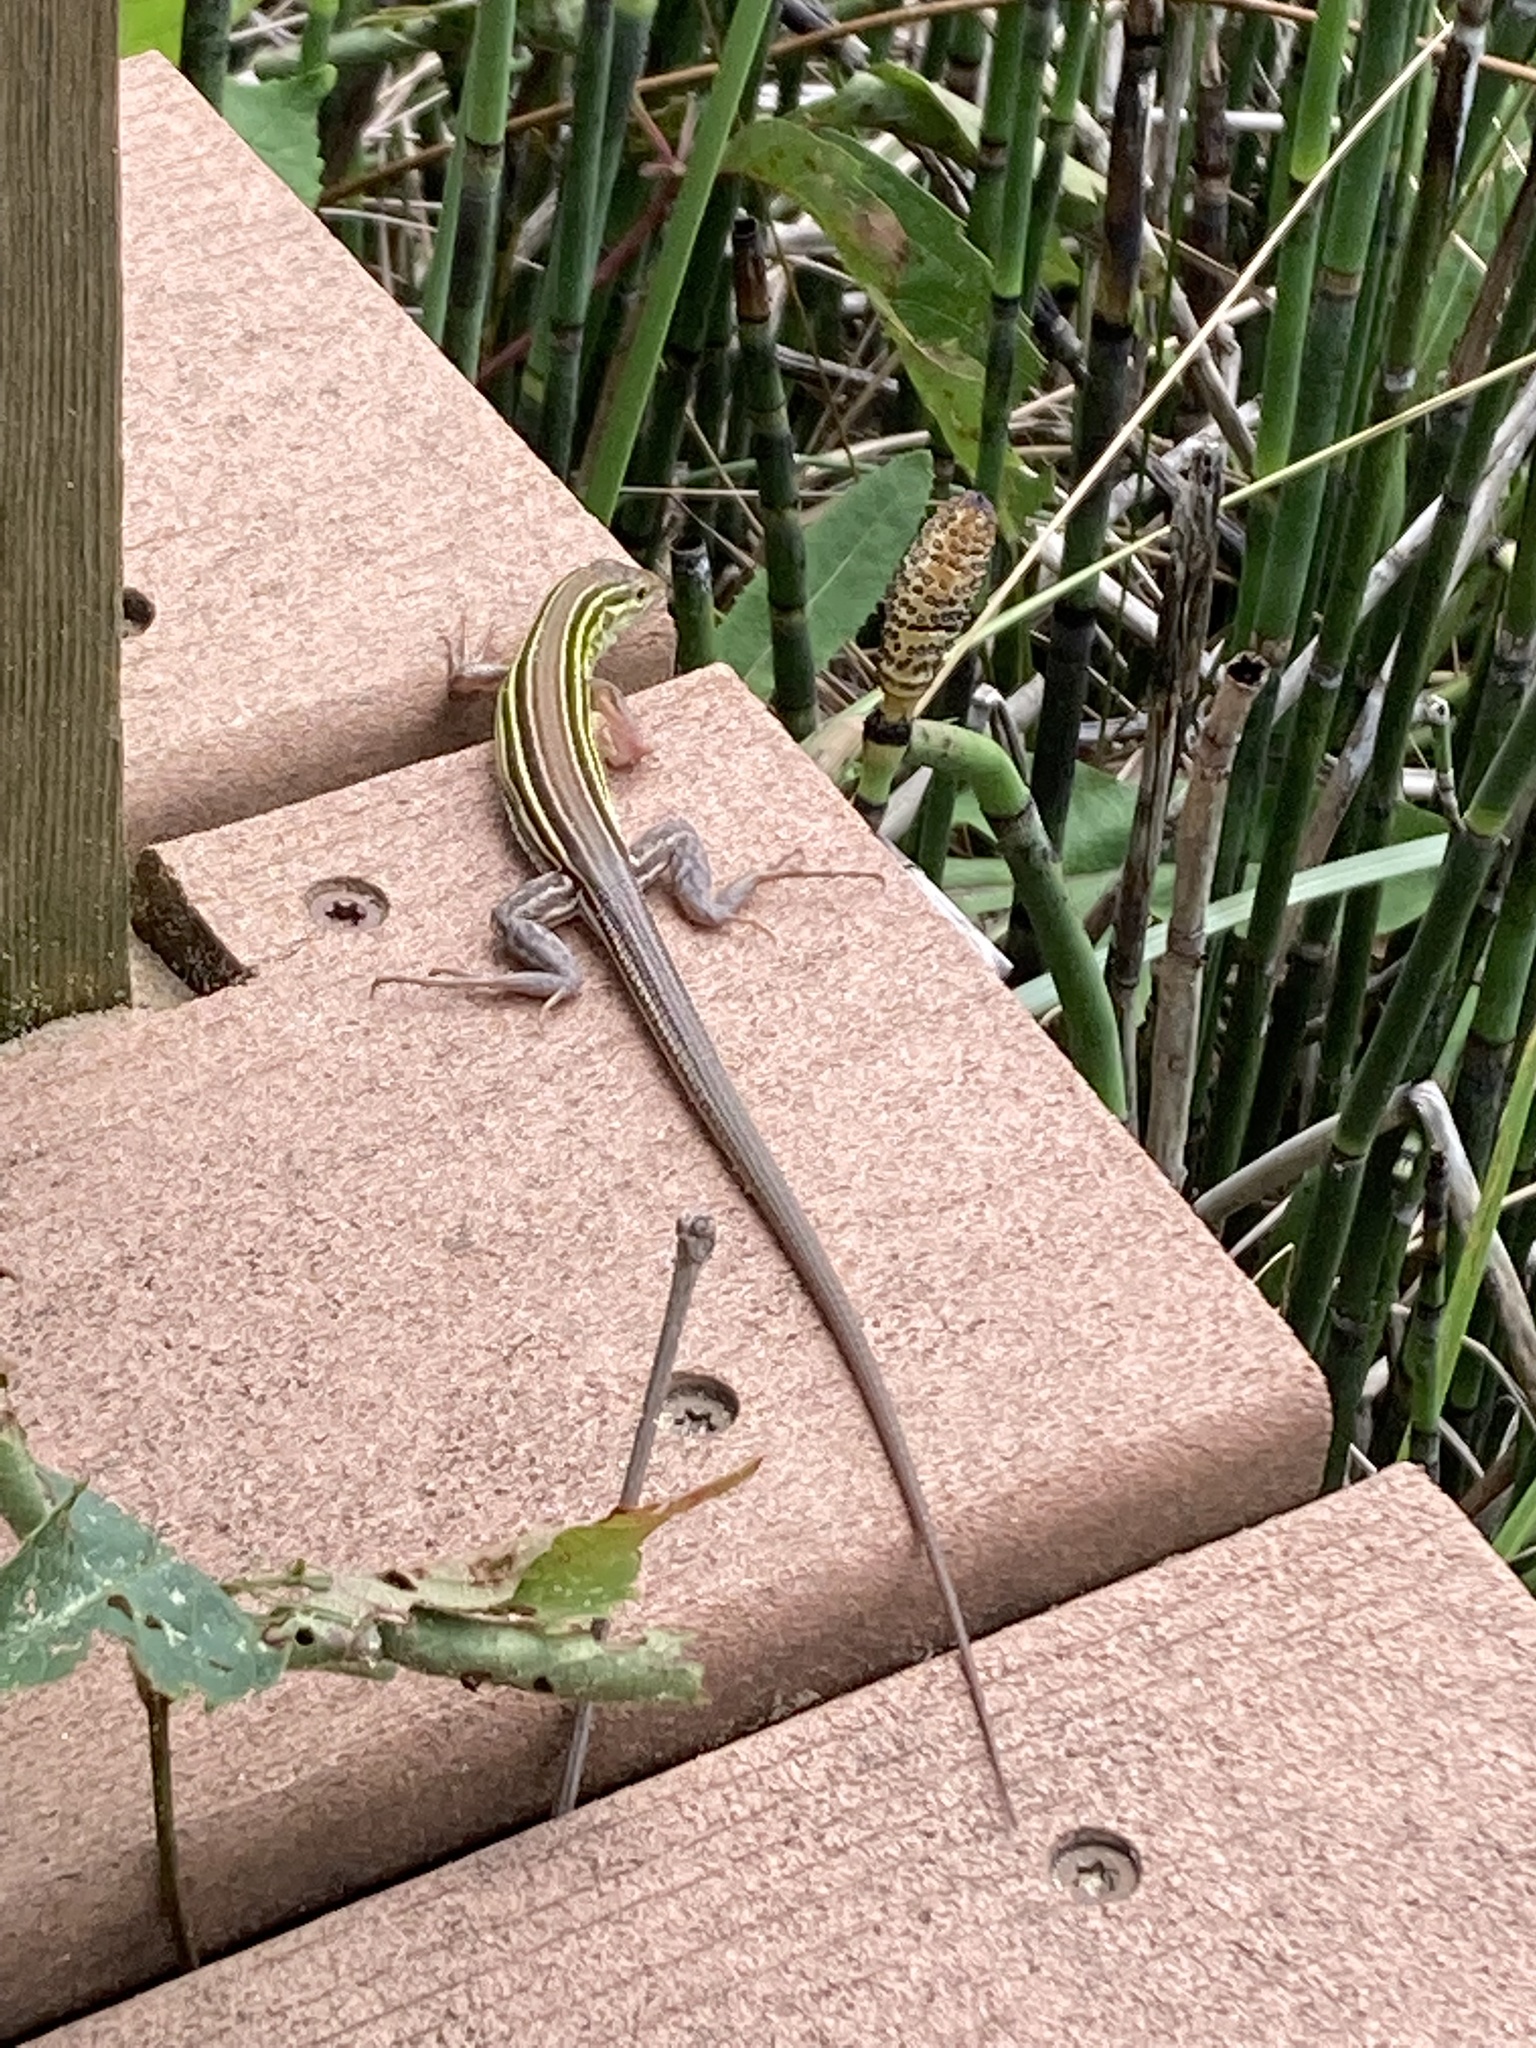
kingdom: Animalia
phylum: Chordata
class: Squamata
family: Teiidae
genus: Aspidoscelis
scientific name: Aspidoscelis sexlineatus
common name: Six-lined racerunner
